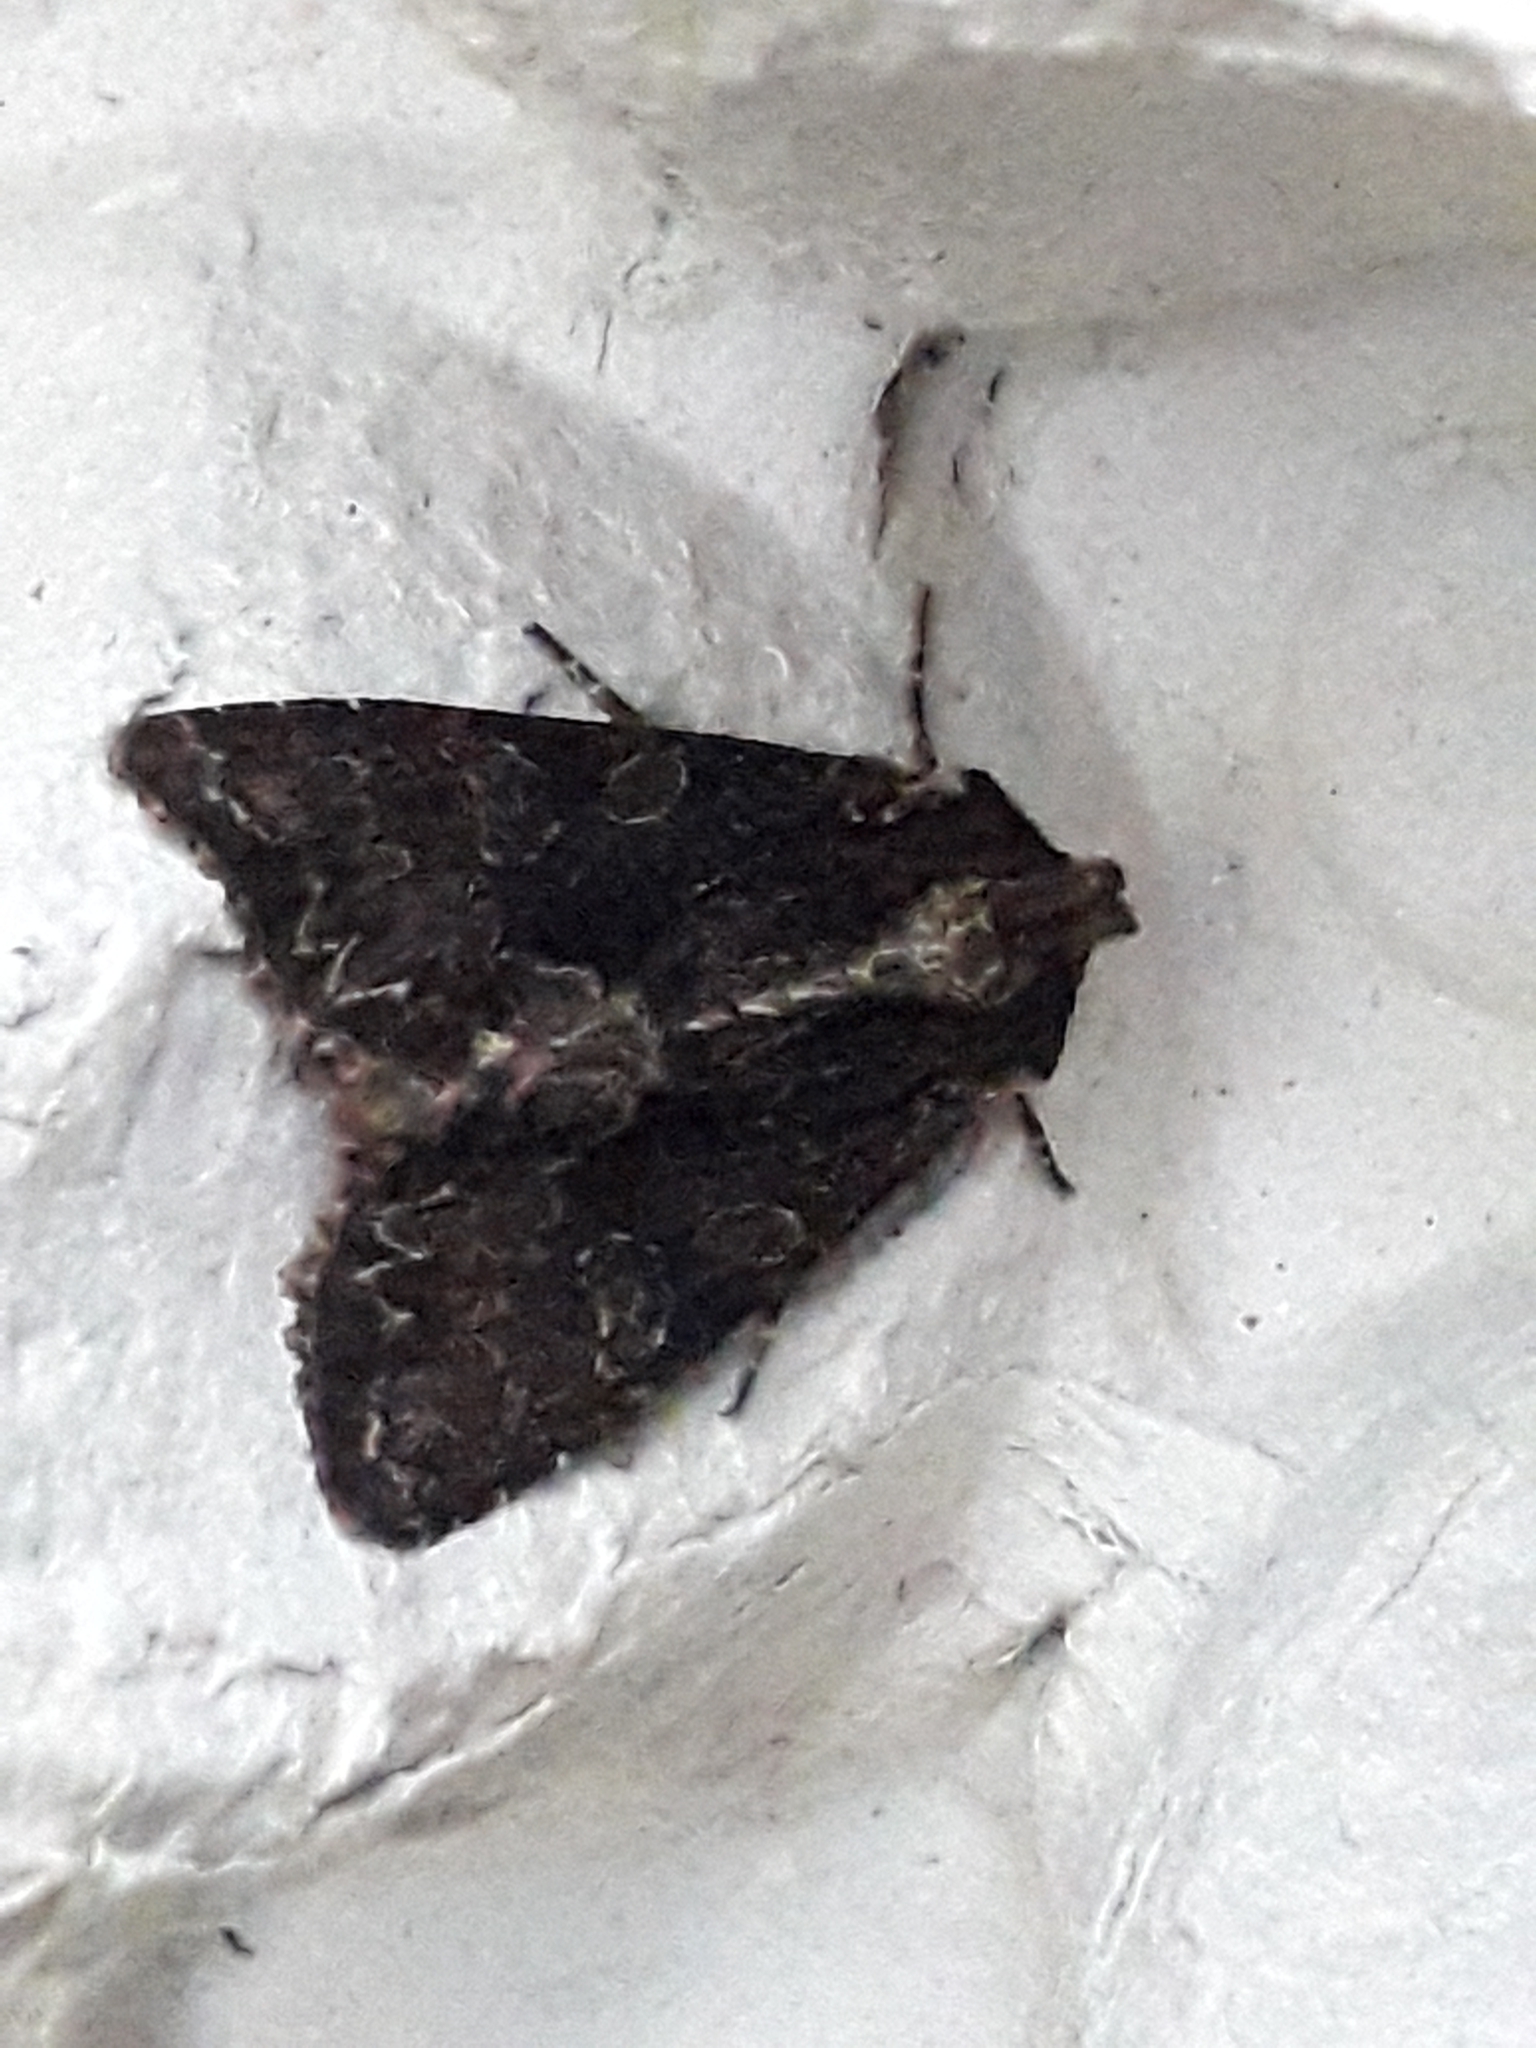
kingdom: Animalia
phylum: Arthropoda
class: Insecta
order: Lepidoptera
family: Noctuidae
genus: Apamea
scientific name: Apamea monoglypha
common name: Dark arches
